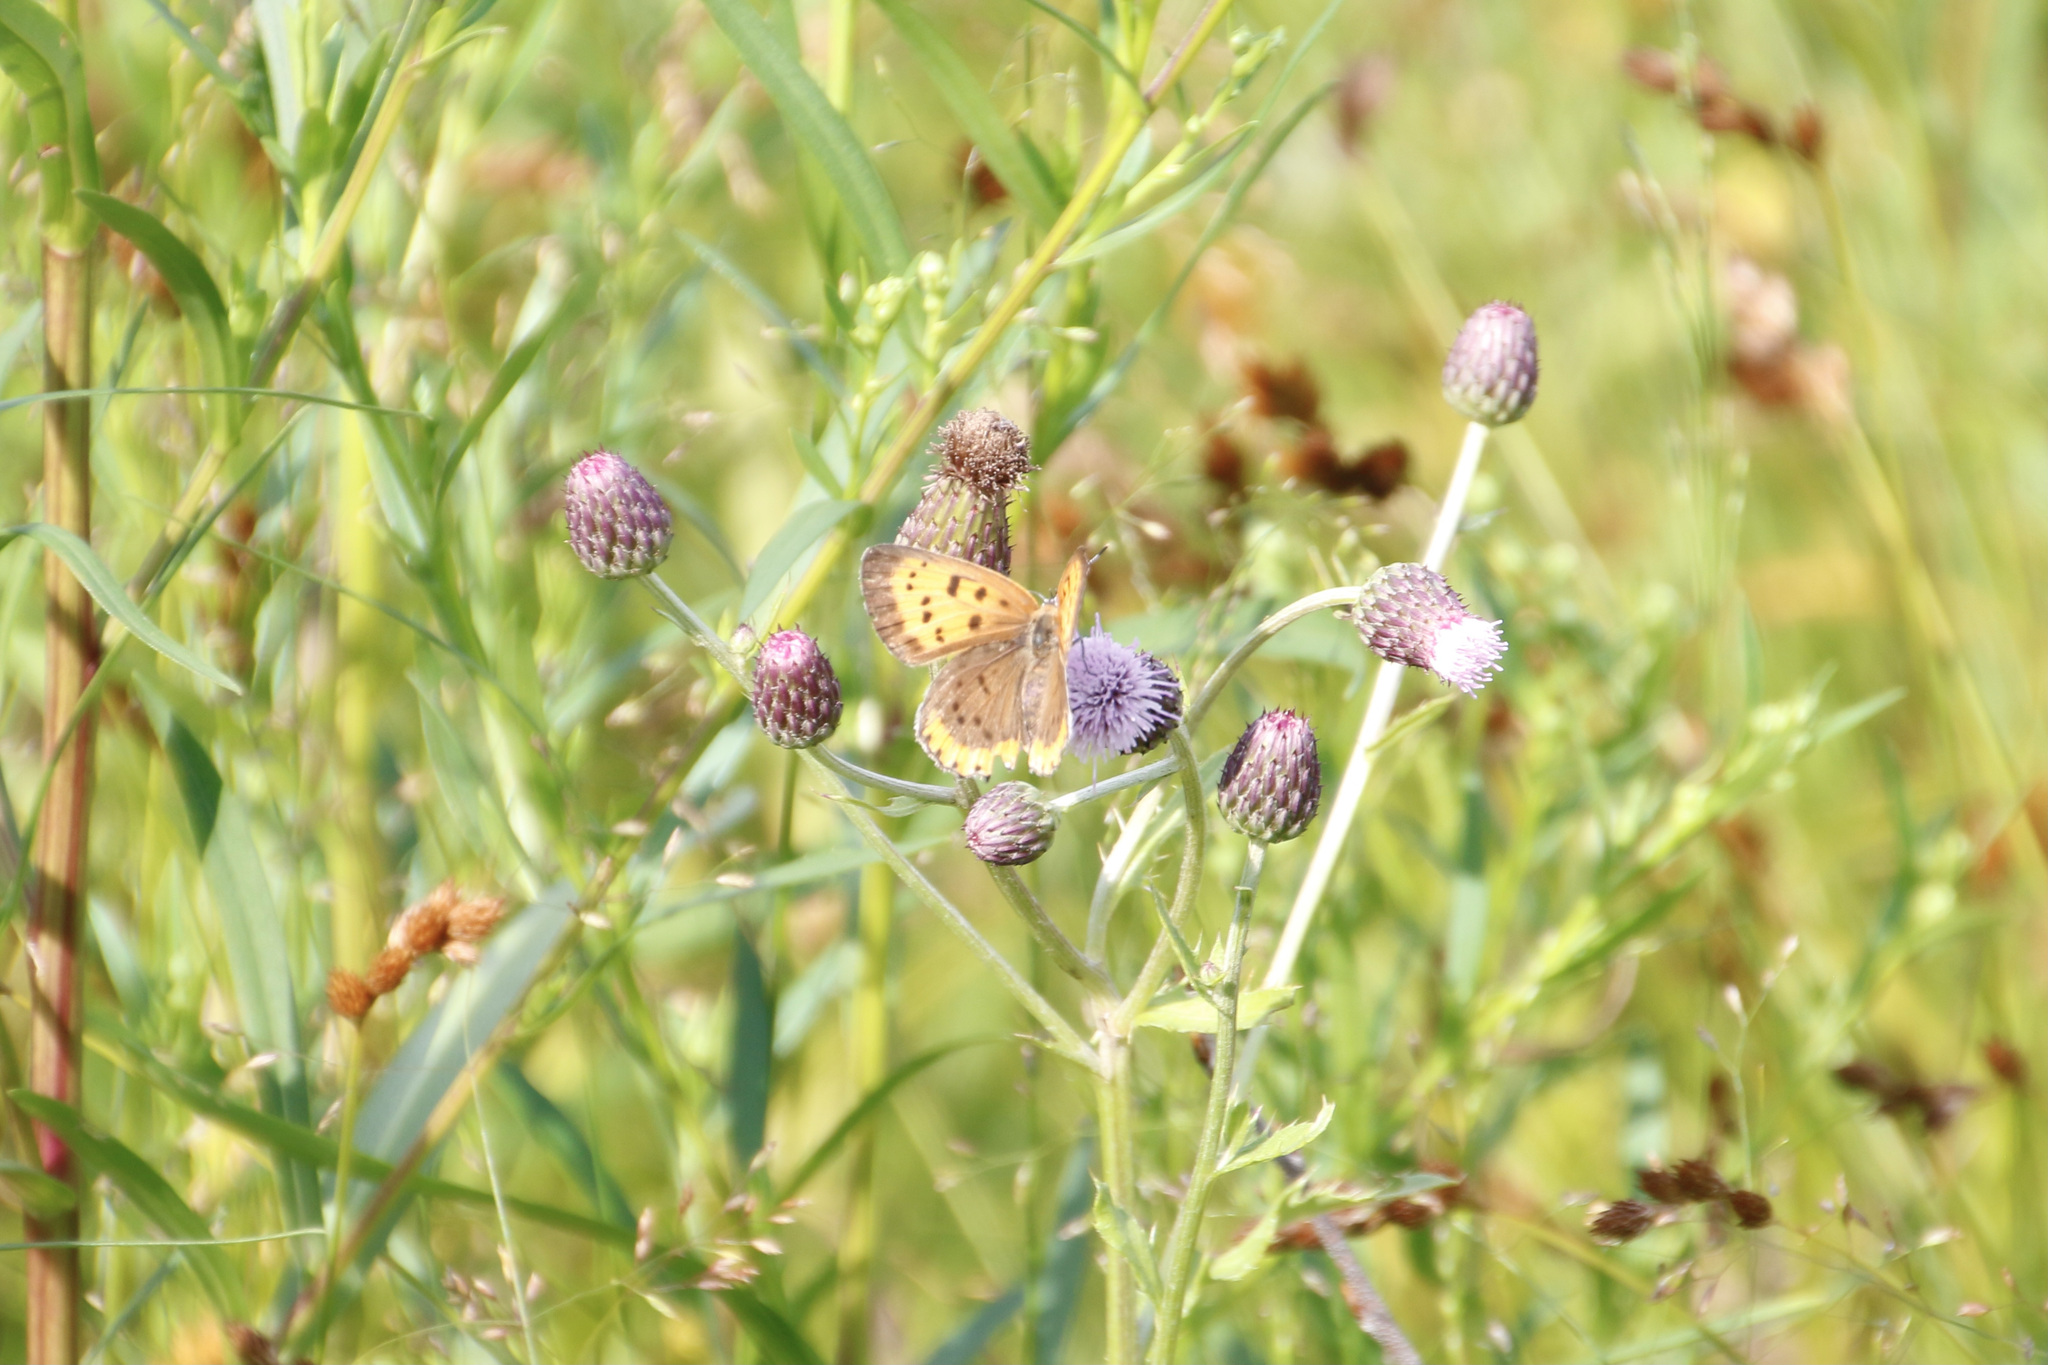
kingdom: Animalia
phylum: Arthropoda
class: Insecta
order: Lepidoptera
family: Lycaenidae
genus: Tharsalea
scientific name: Tharsalea hyllus
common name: Bronze copper
